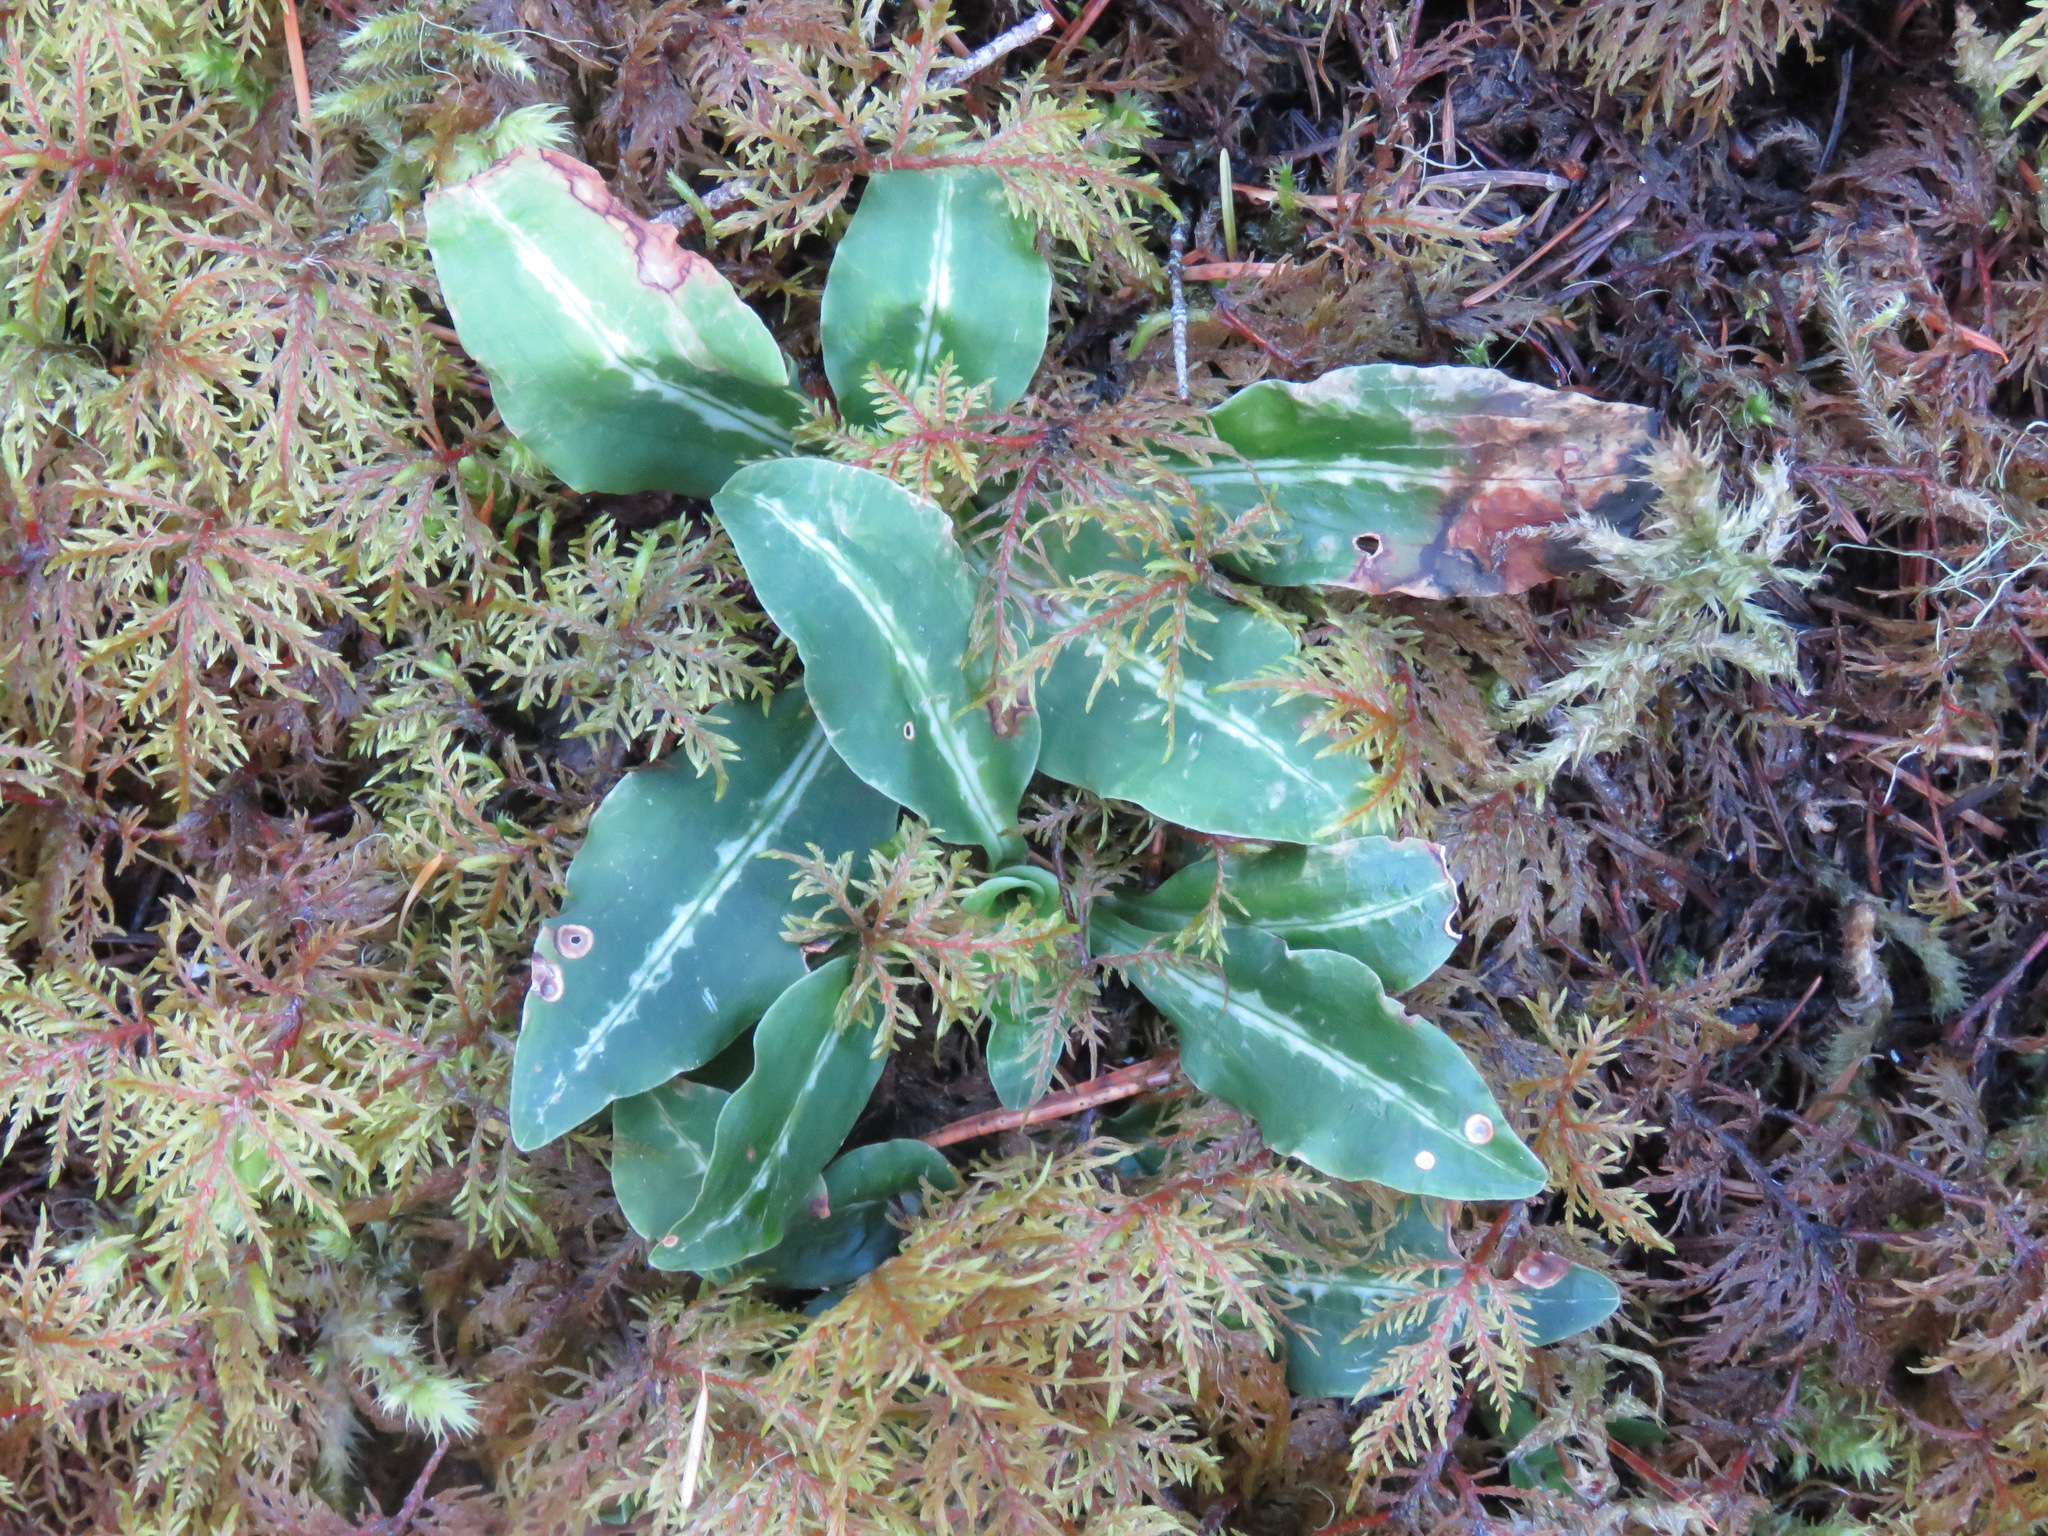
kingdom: Plantae
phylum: Tracheophyta
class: Liliopsida
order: Asparagales
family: Orchidaceae
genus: Goodyera
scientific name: Goodyera oblongifolia
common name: Giant rattlesnake-plantain
